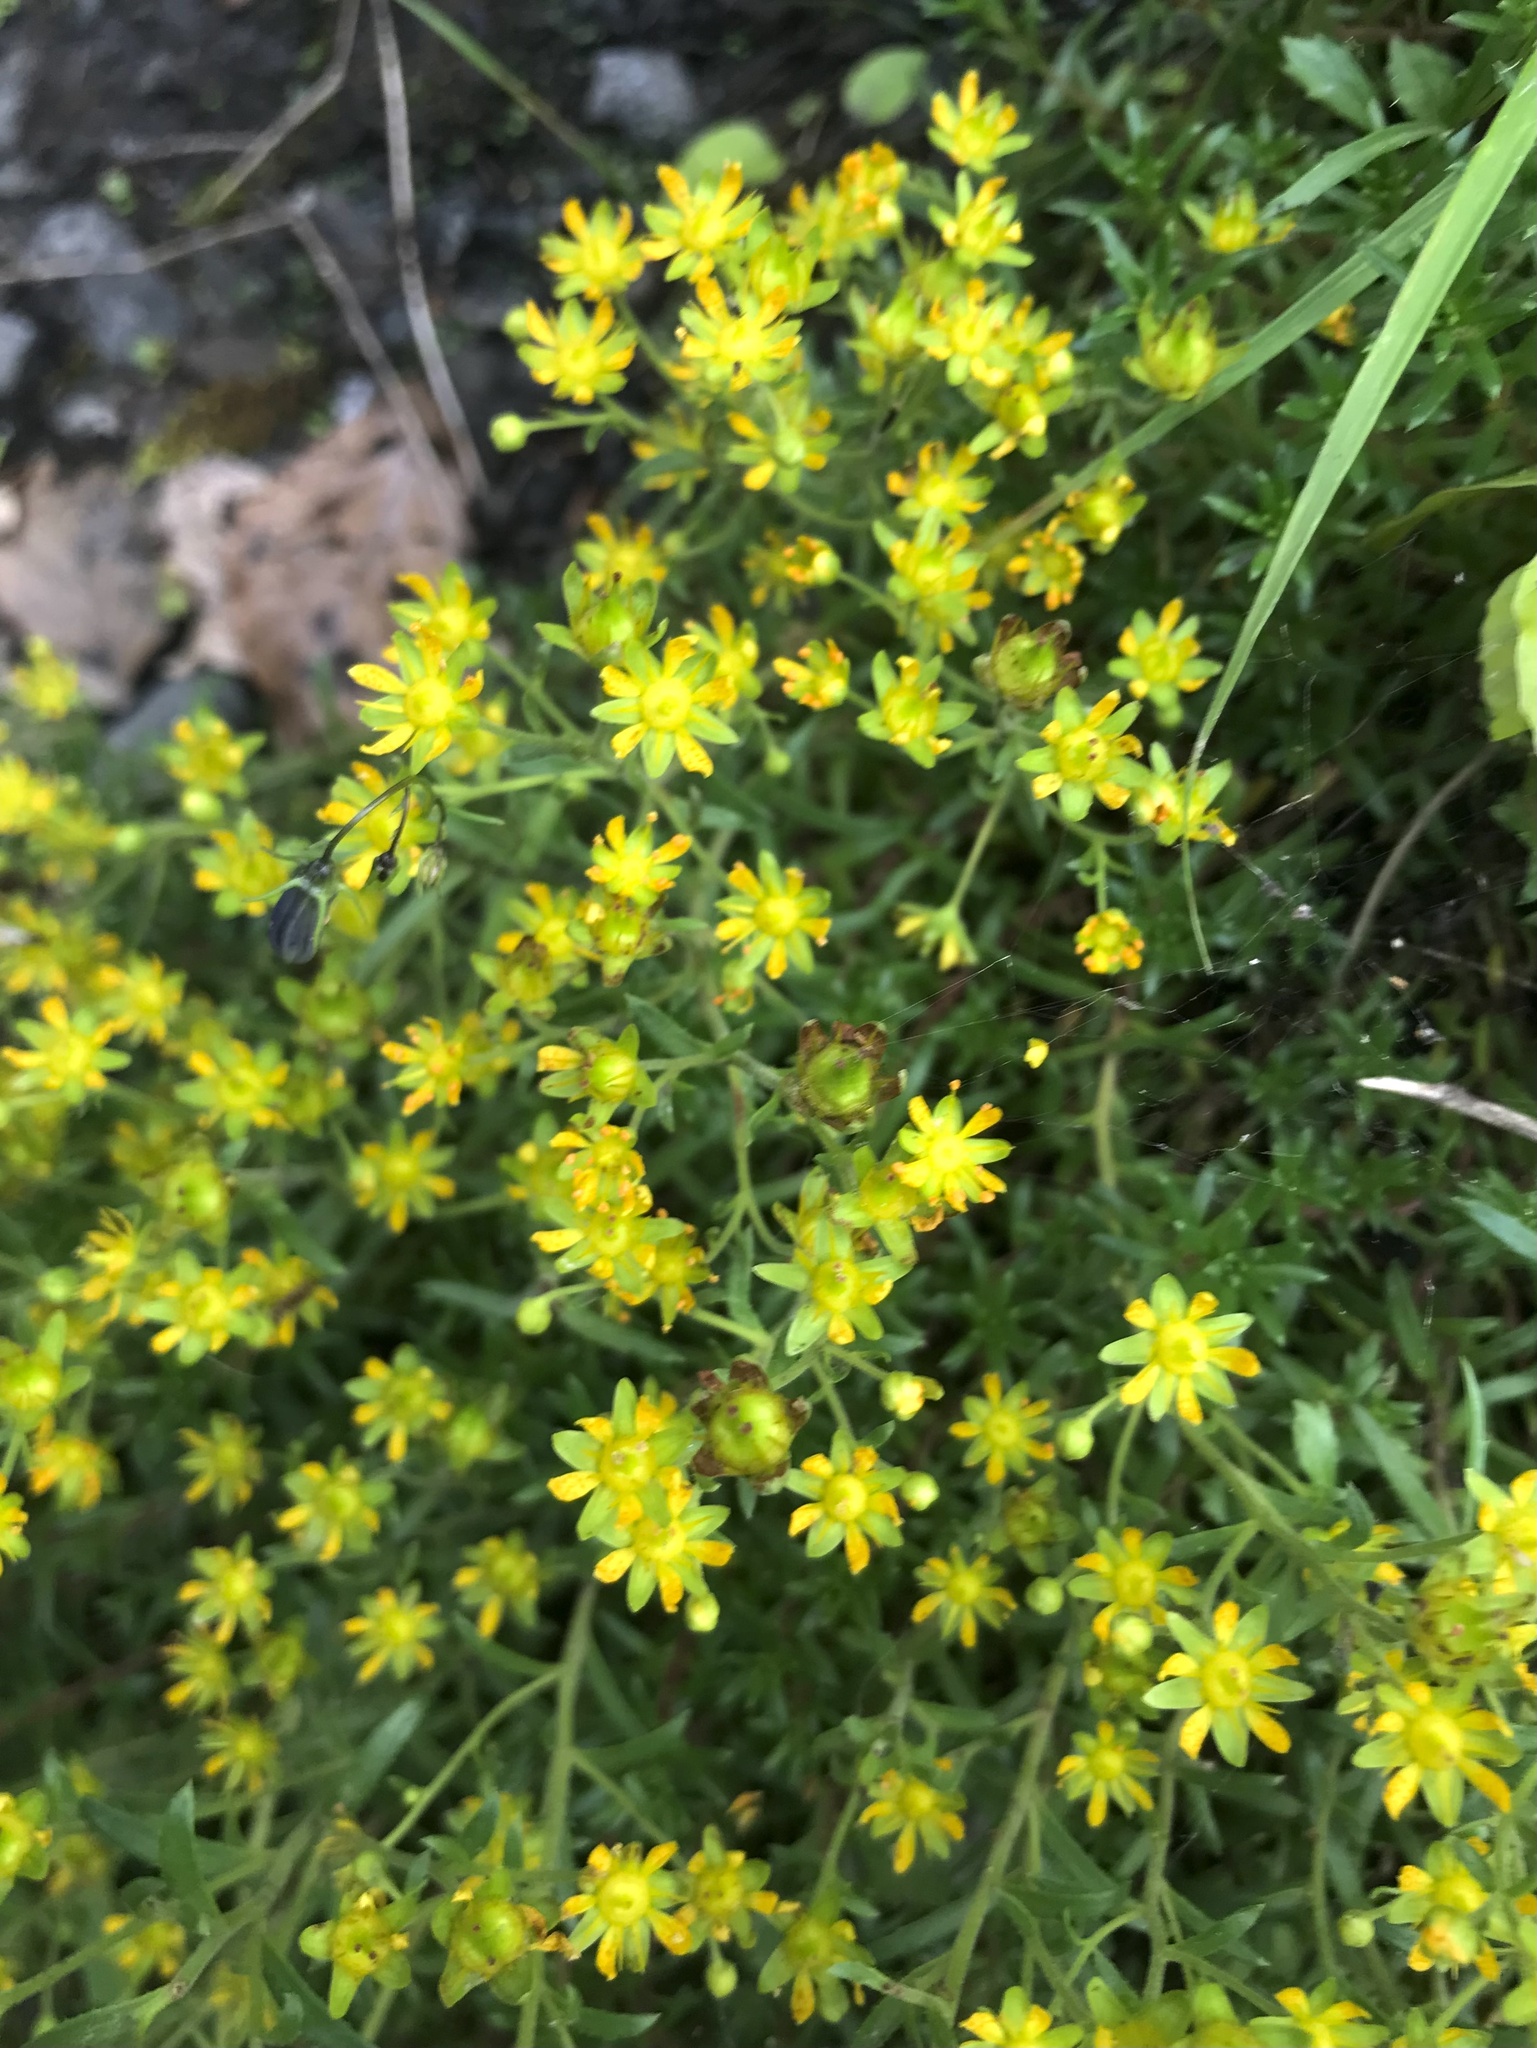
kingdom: Plantae
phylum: Tracheophyta
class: Magnoliopsida
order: Saxifragales
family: Saxifragaceae
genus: Saxifraga
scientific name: Saxifraga aizoides
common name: Yellow mountain saxifrage
